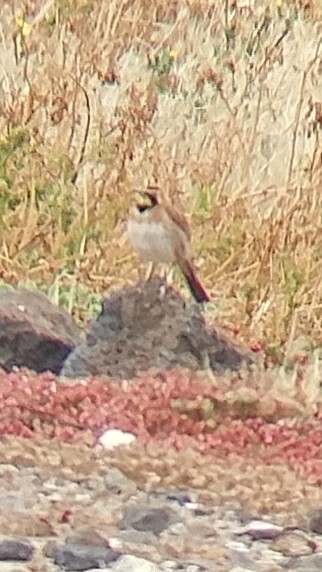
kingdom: Animalia
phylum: Chordata
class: Aves
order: Passeriformes
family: Alaudidae
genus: Eremophila
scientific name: Eremophila alpestris
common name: Horned lark
